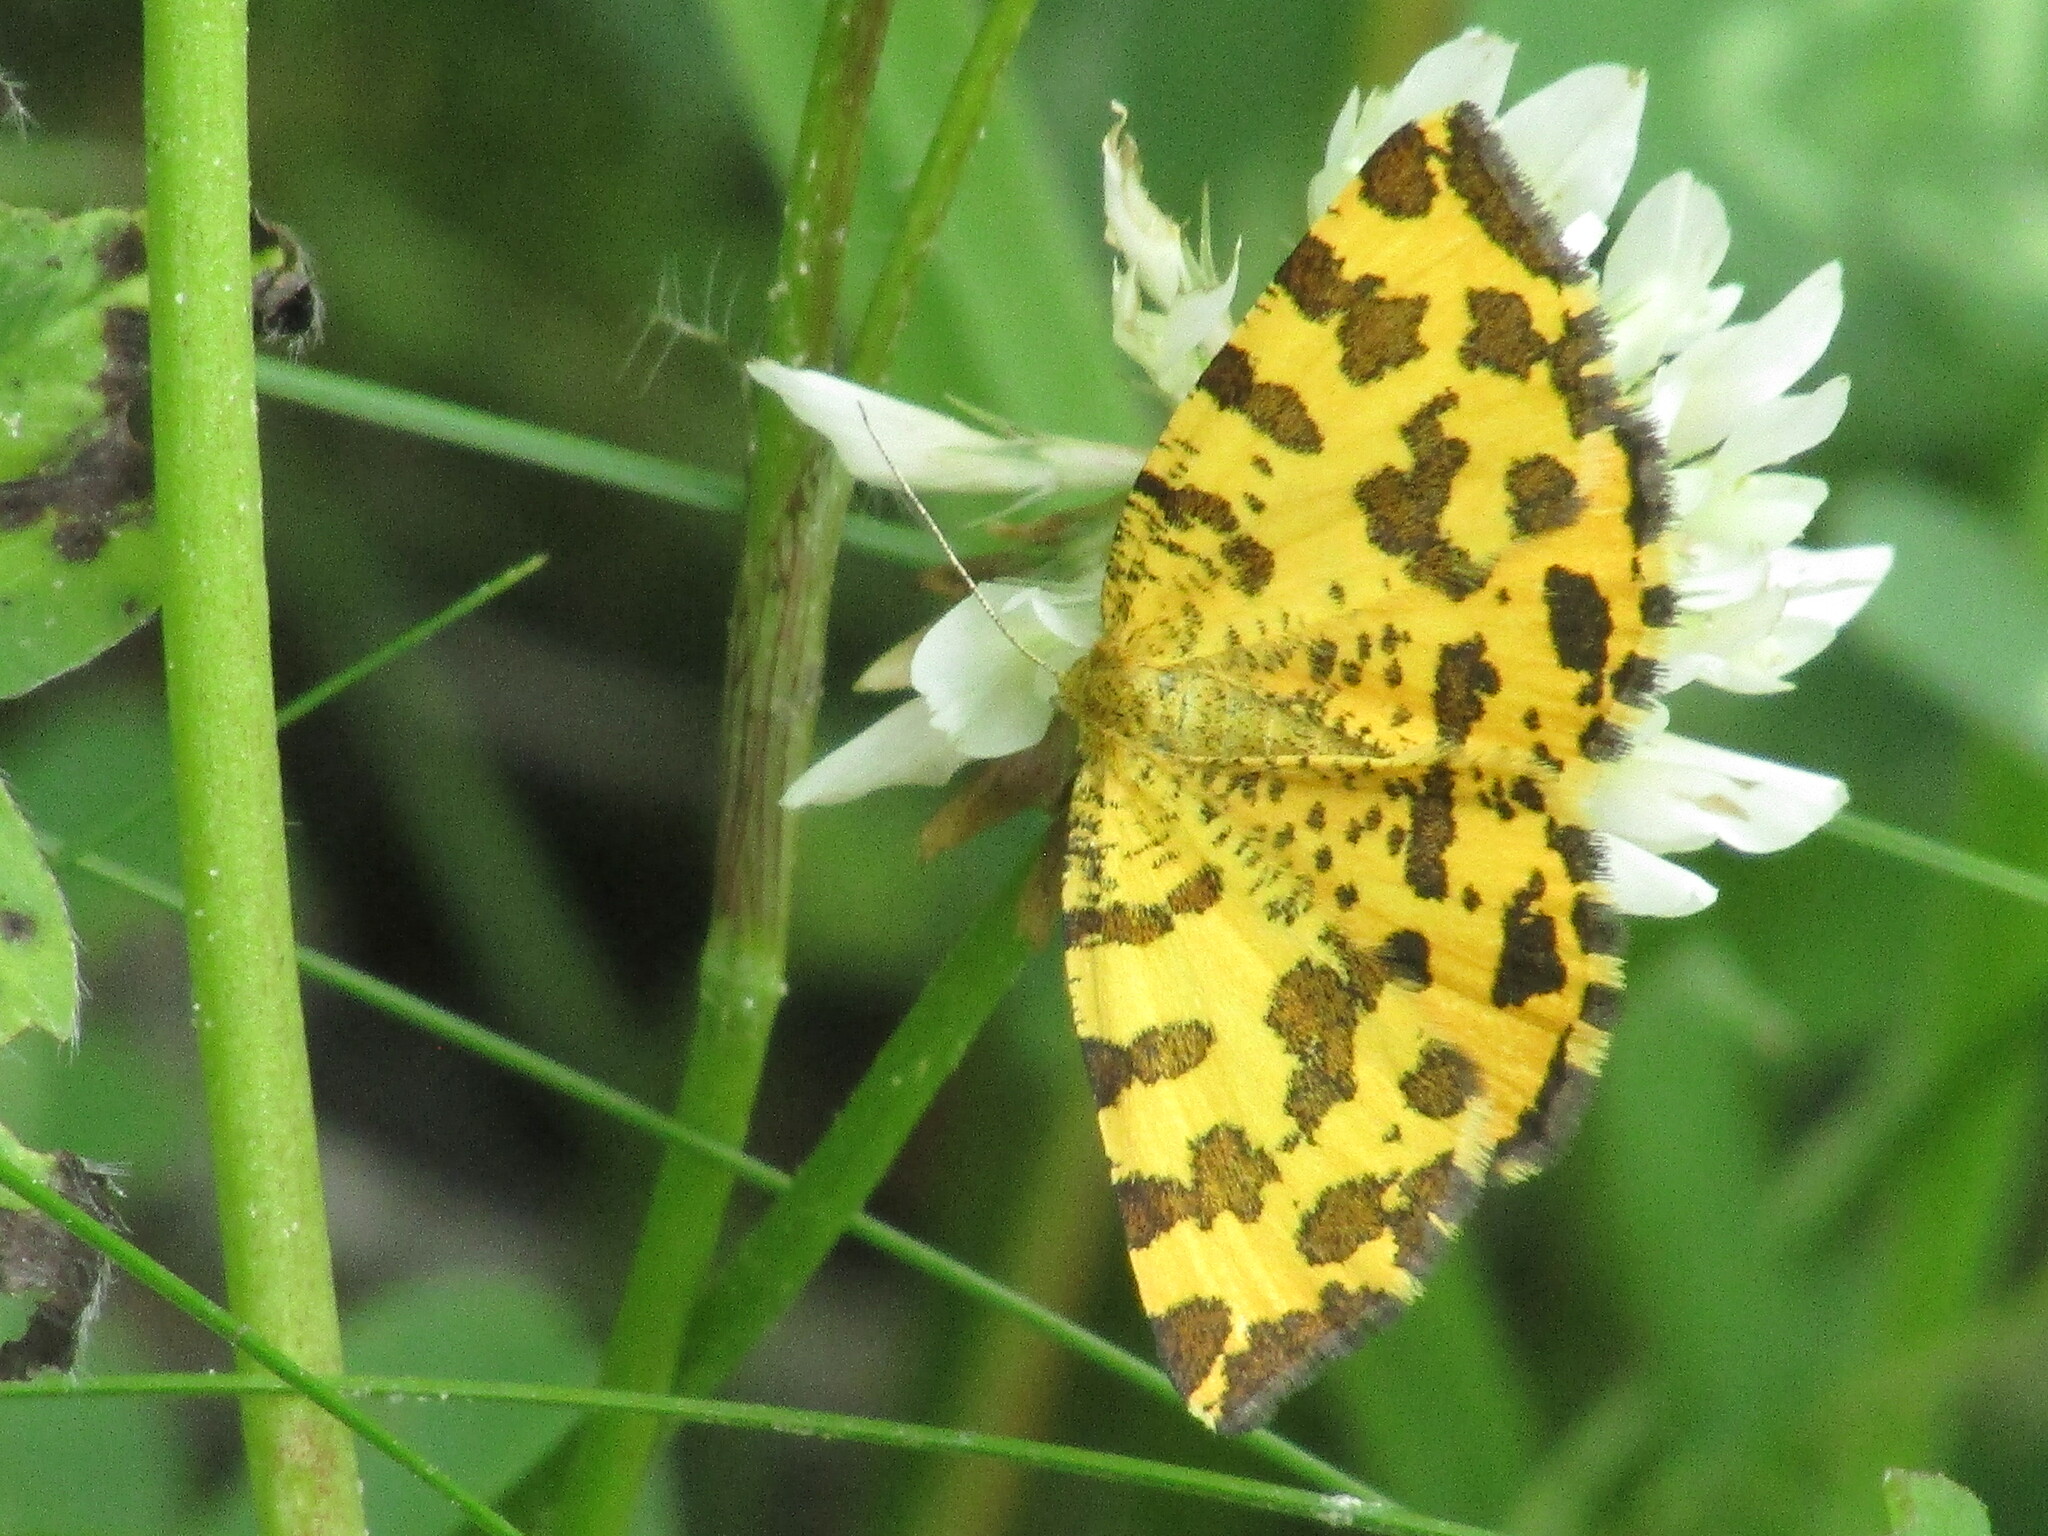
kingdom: Animalia
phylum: Arthropoda
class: Insecta
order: Lepidoptera
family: Geometridae
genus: Pseudopanthera
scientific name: Pseudopanthera macularia
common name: Speckled yellow
